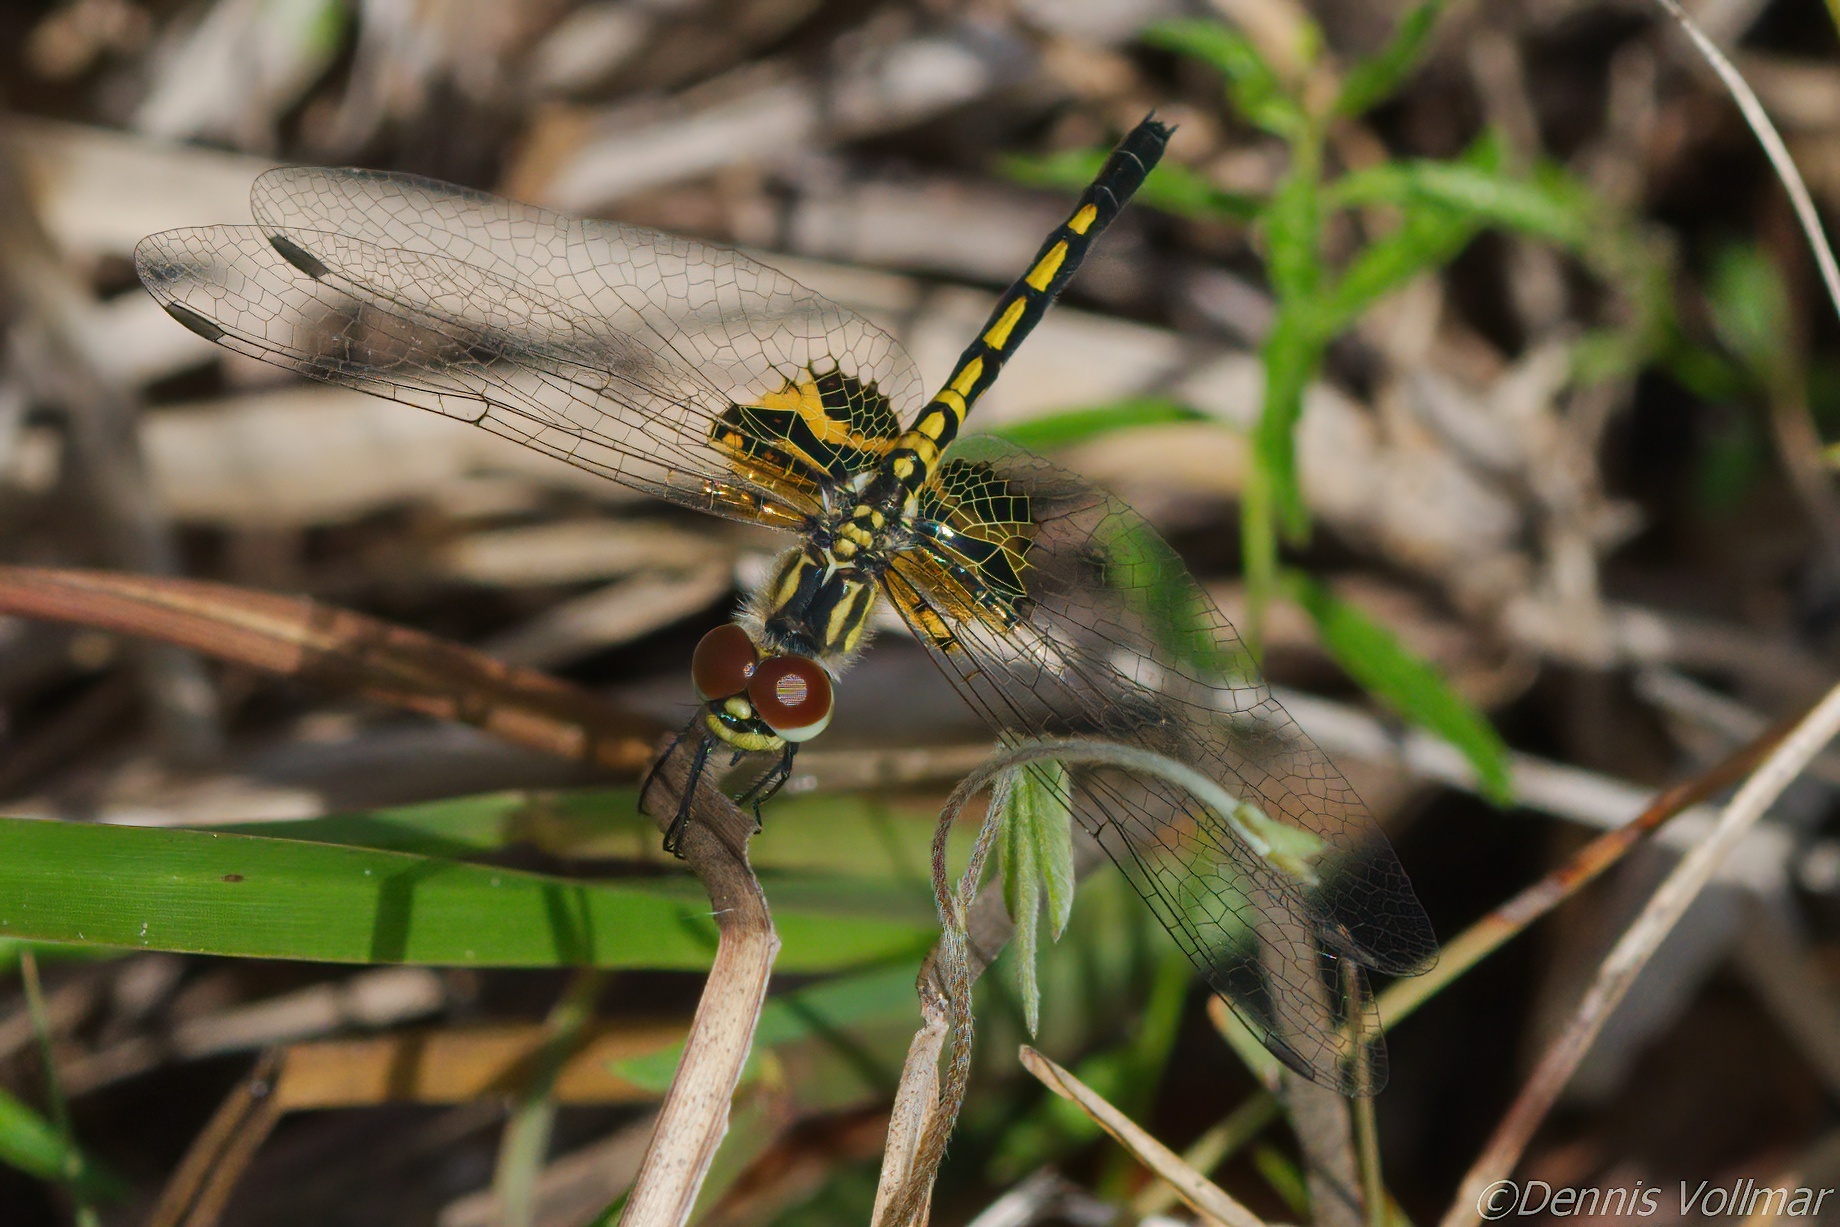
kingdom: Animalia
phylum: Arthropoda
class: Insecta
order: Odonata
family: Libellulidae
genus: Celithemis
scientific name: Celithemis ornata
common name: Ornate pennant
